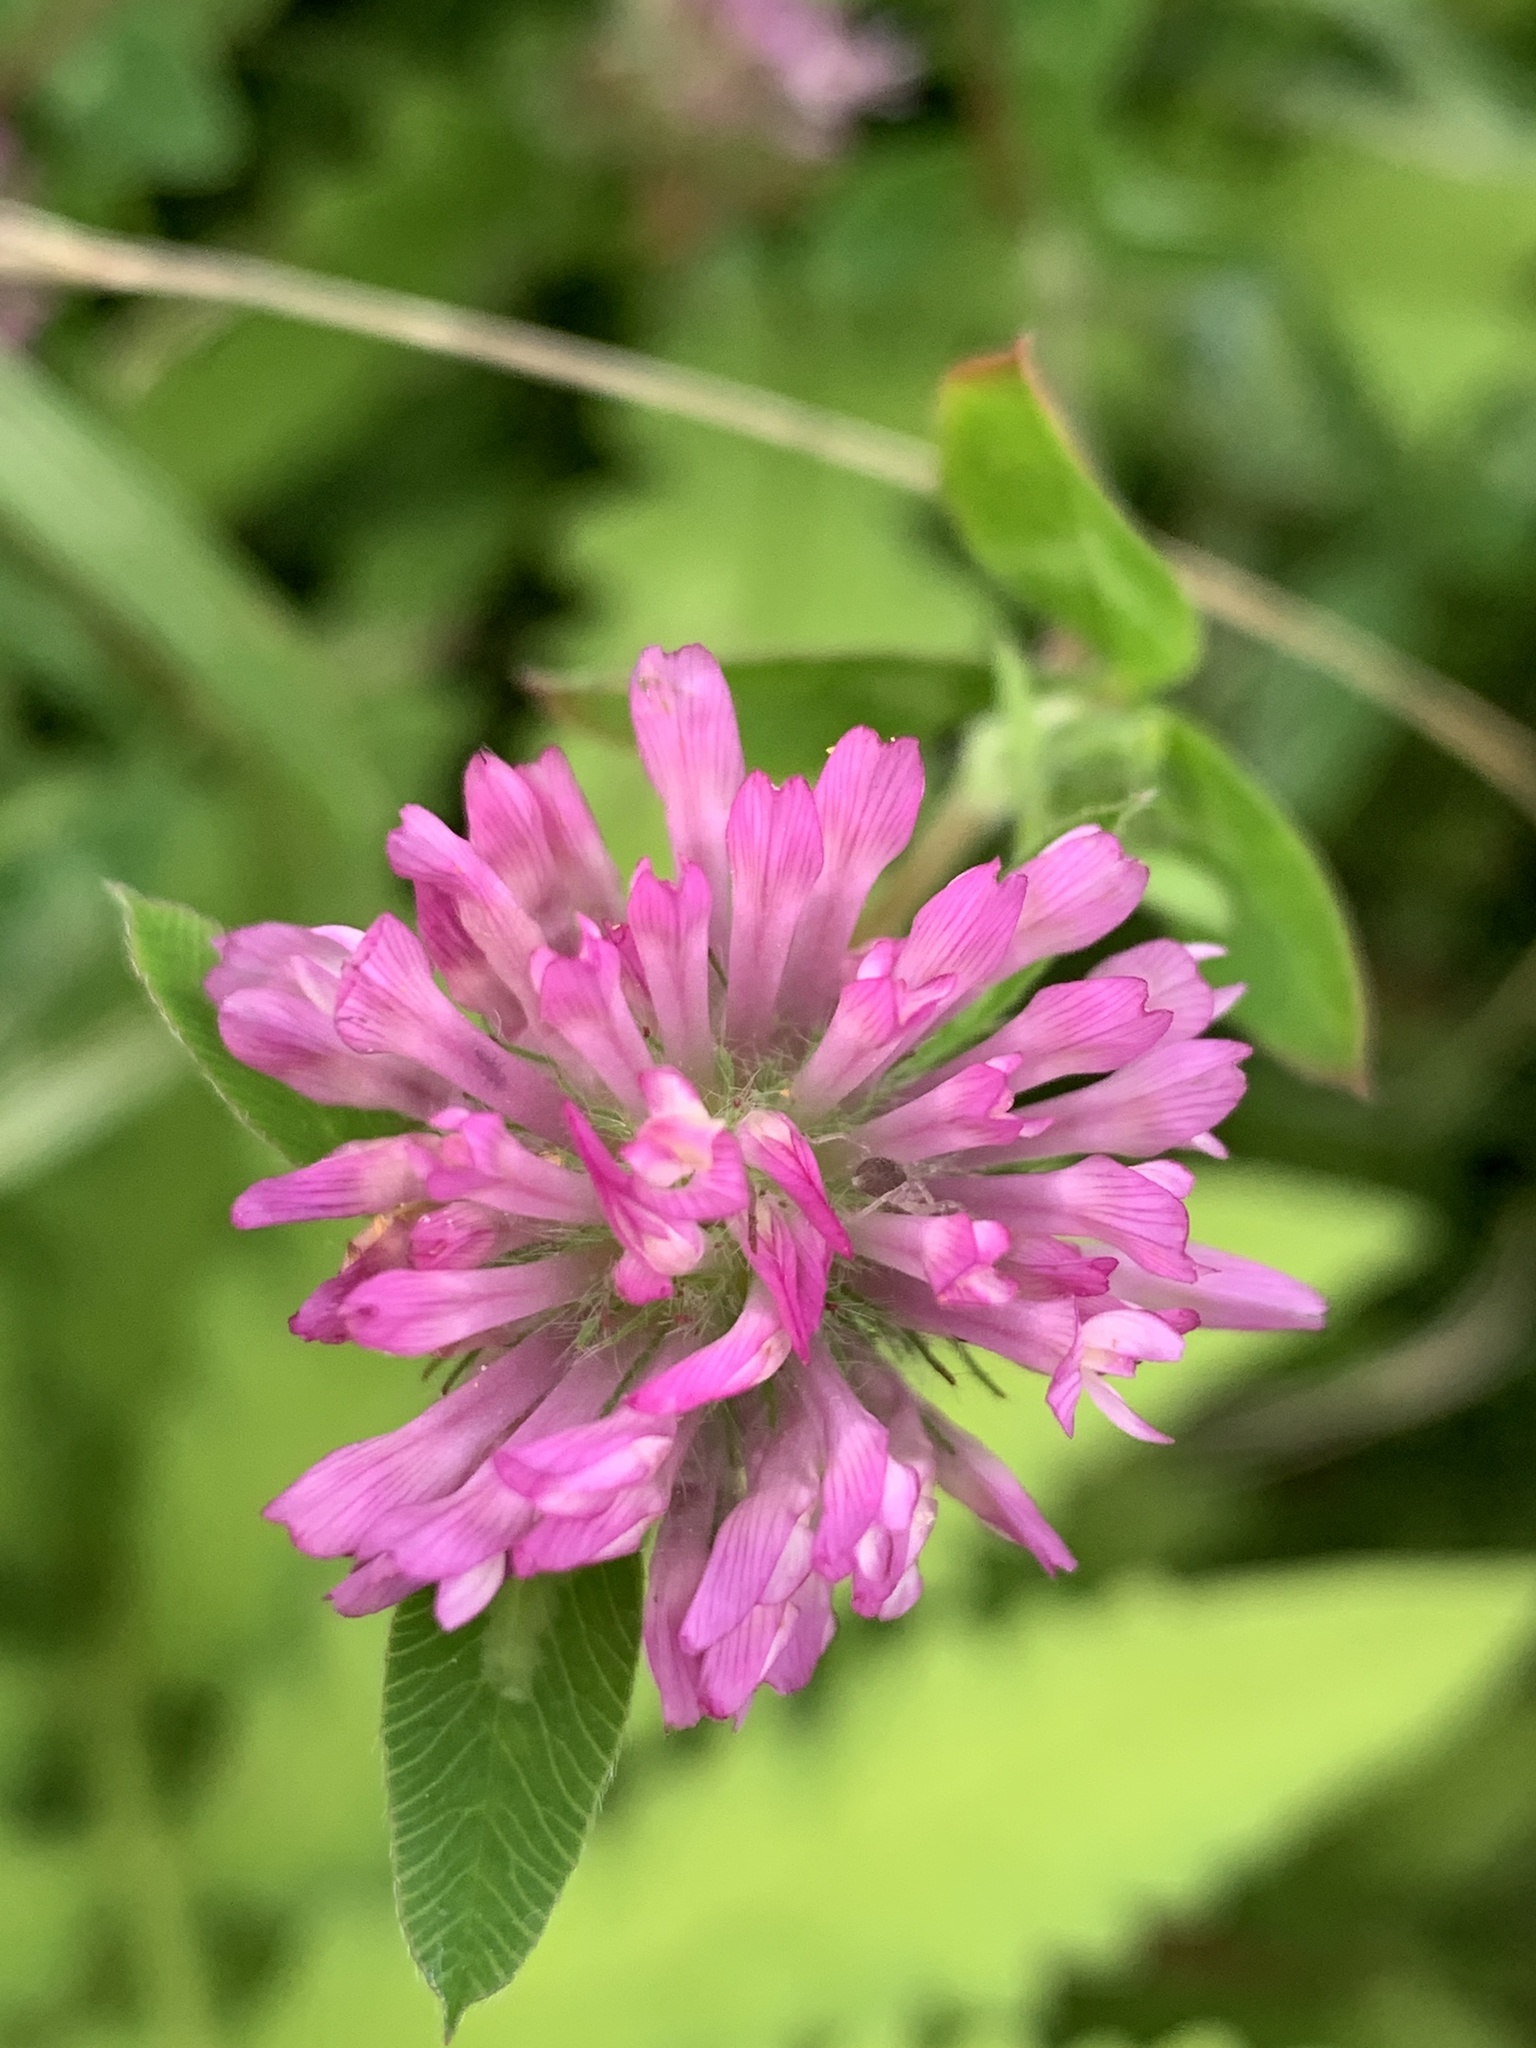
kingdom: Plantae
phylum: Tracheophyta
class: Magnoliopsida
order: Fabales
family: Fabaceae
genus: Trifolium
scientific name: Trifolium pratense
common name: Red clover
